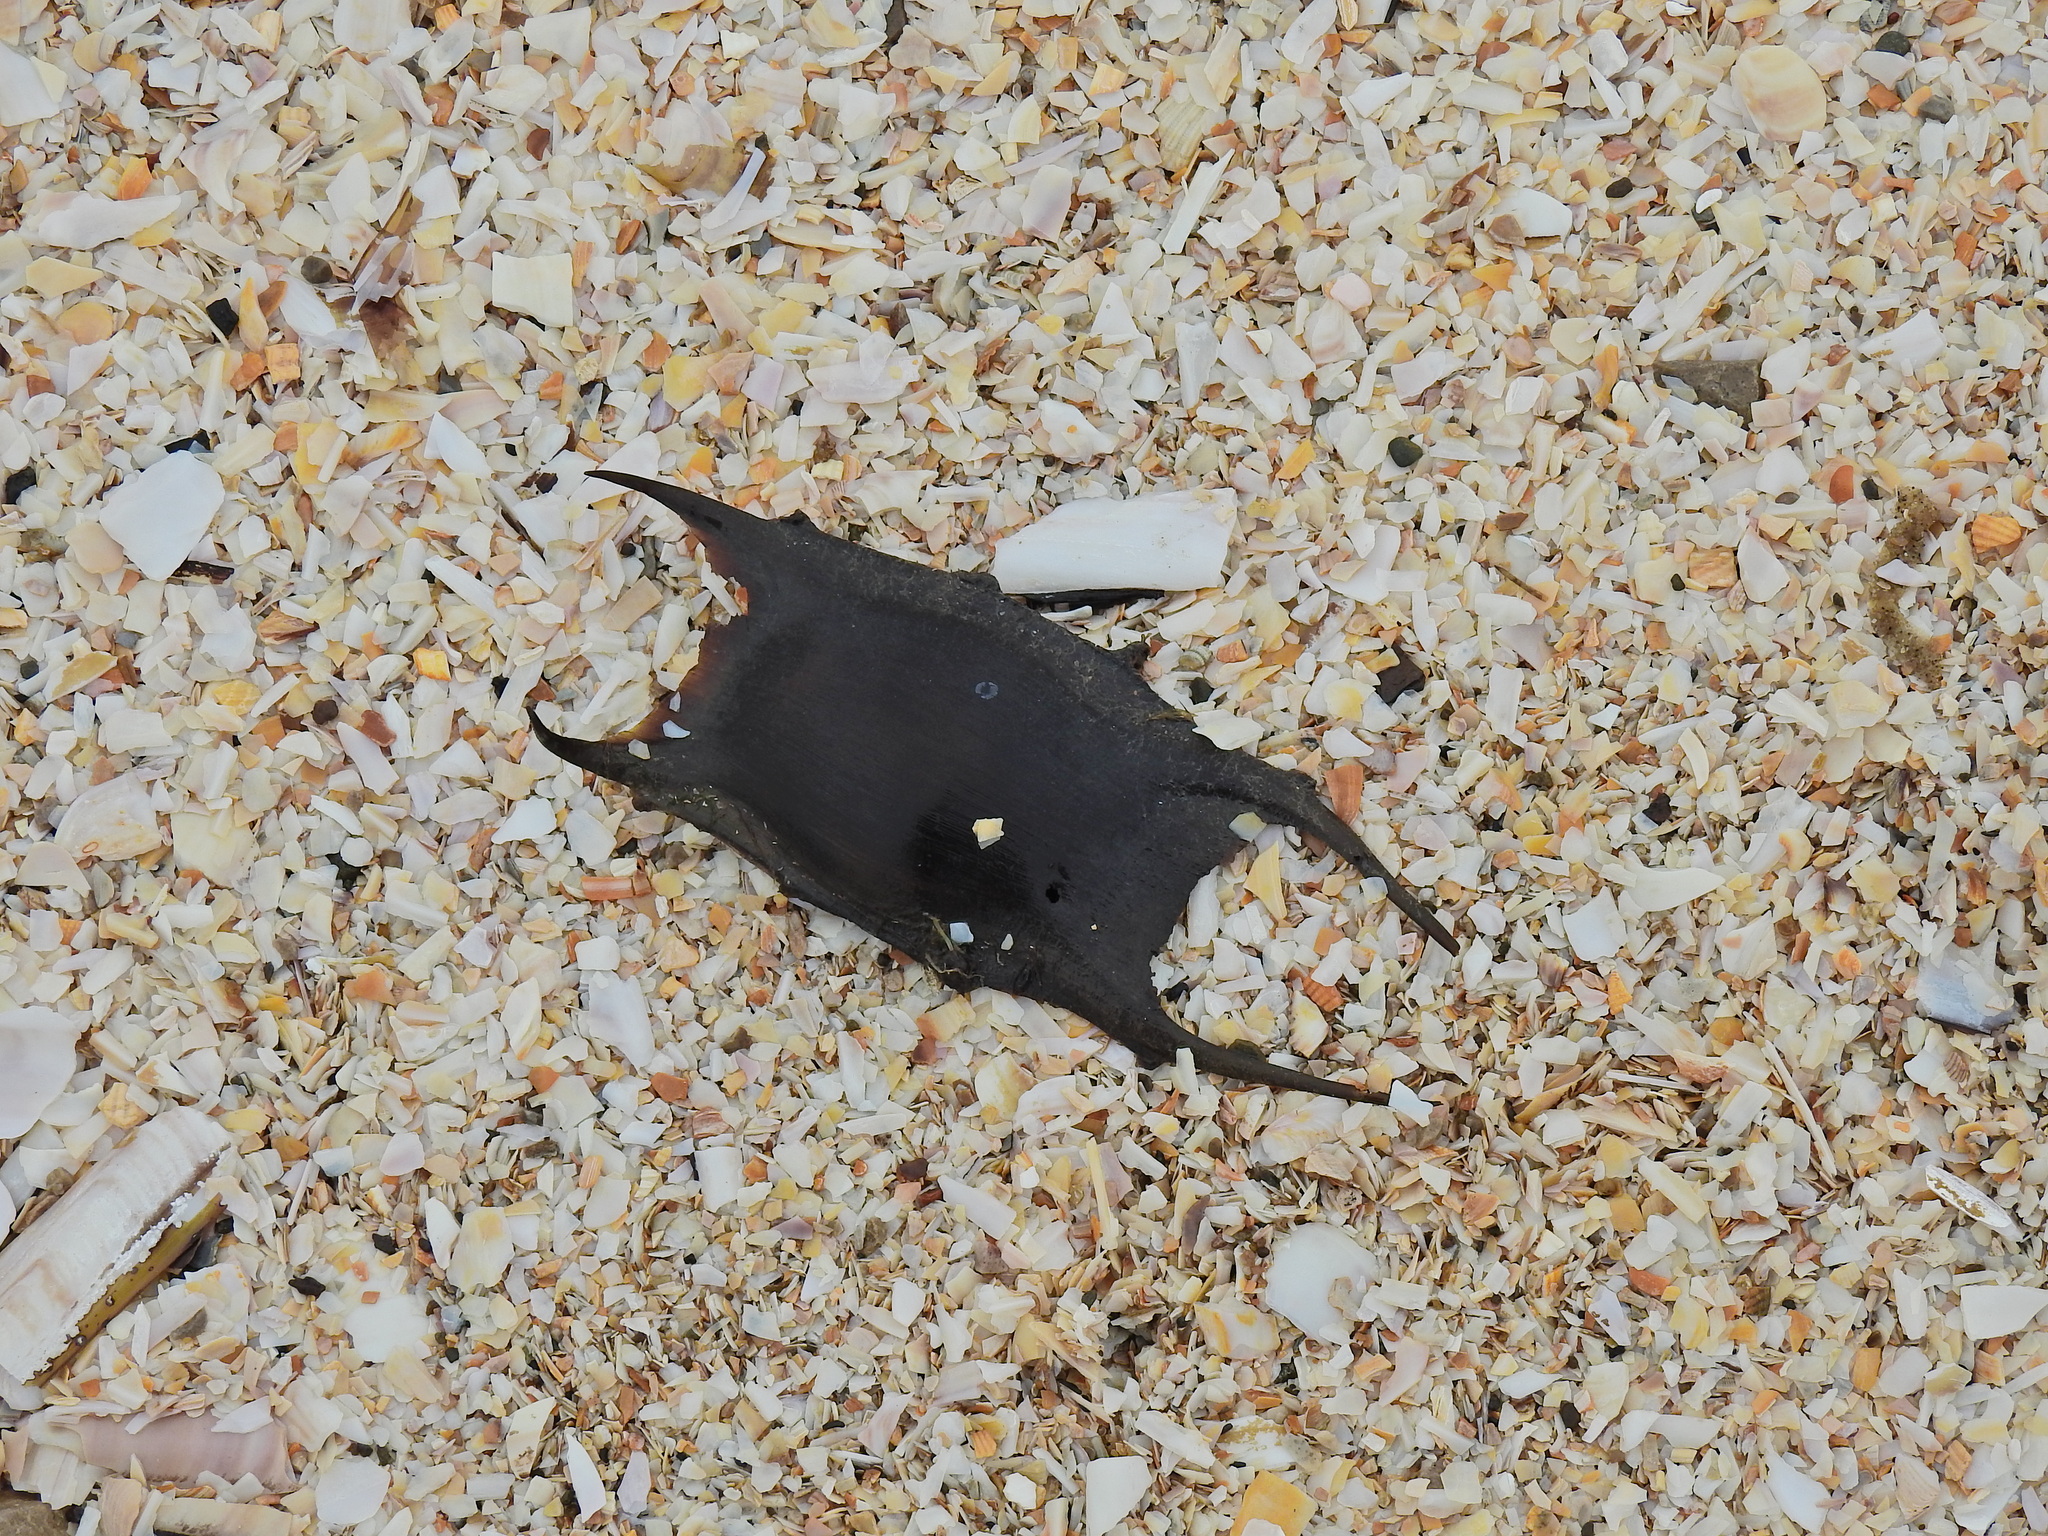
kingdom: Animalia
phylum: Chordata
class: Elasmobranchii
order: Rajiformes
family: Rajidae
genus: Raja
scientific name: Raja clavata
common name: Thornback ray
